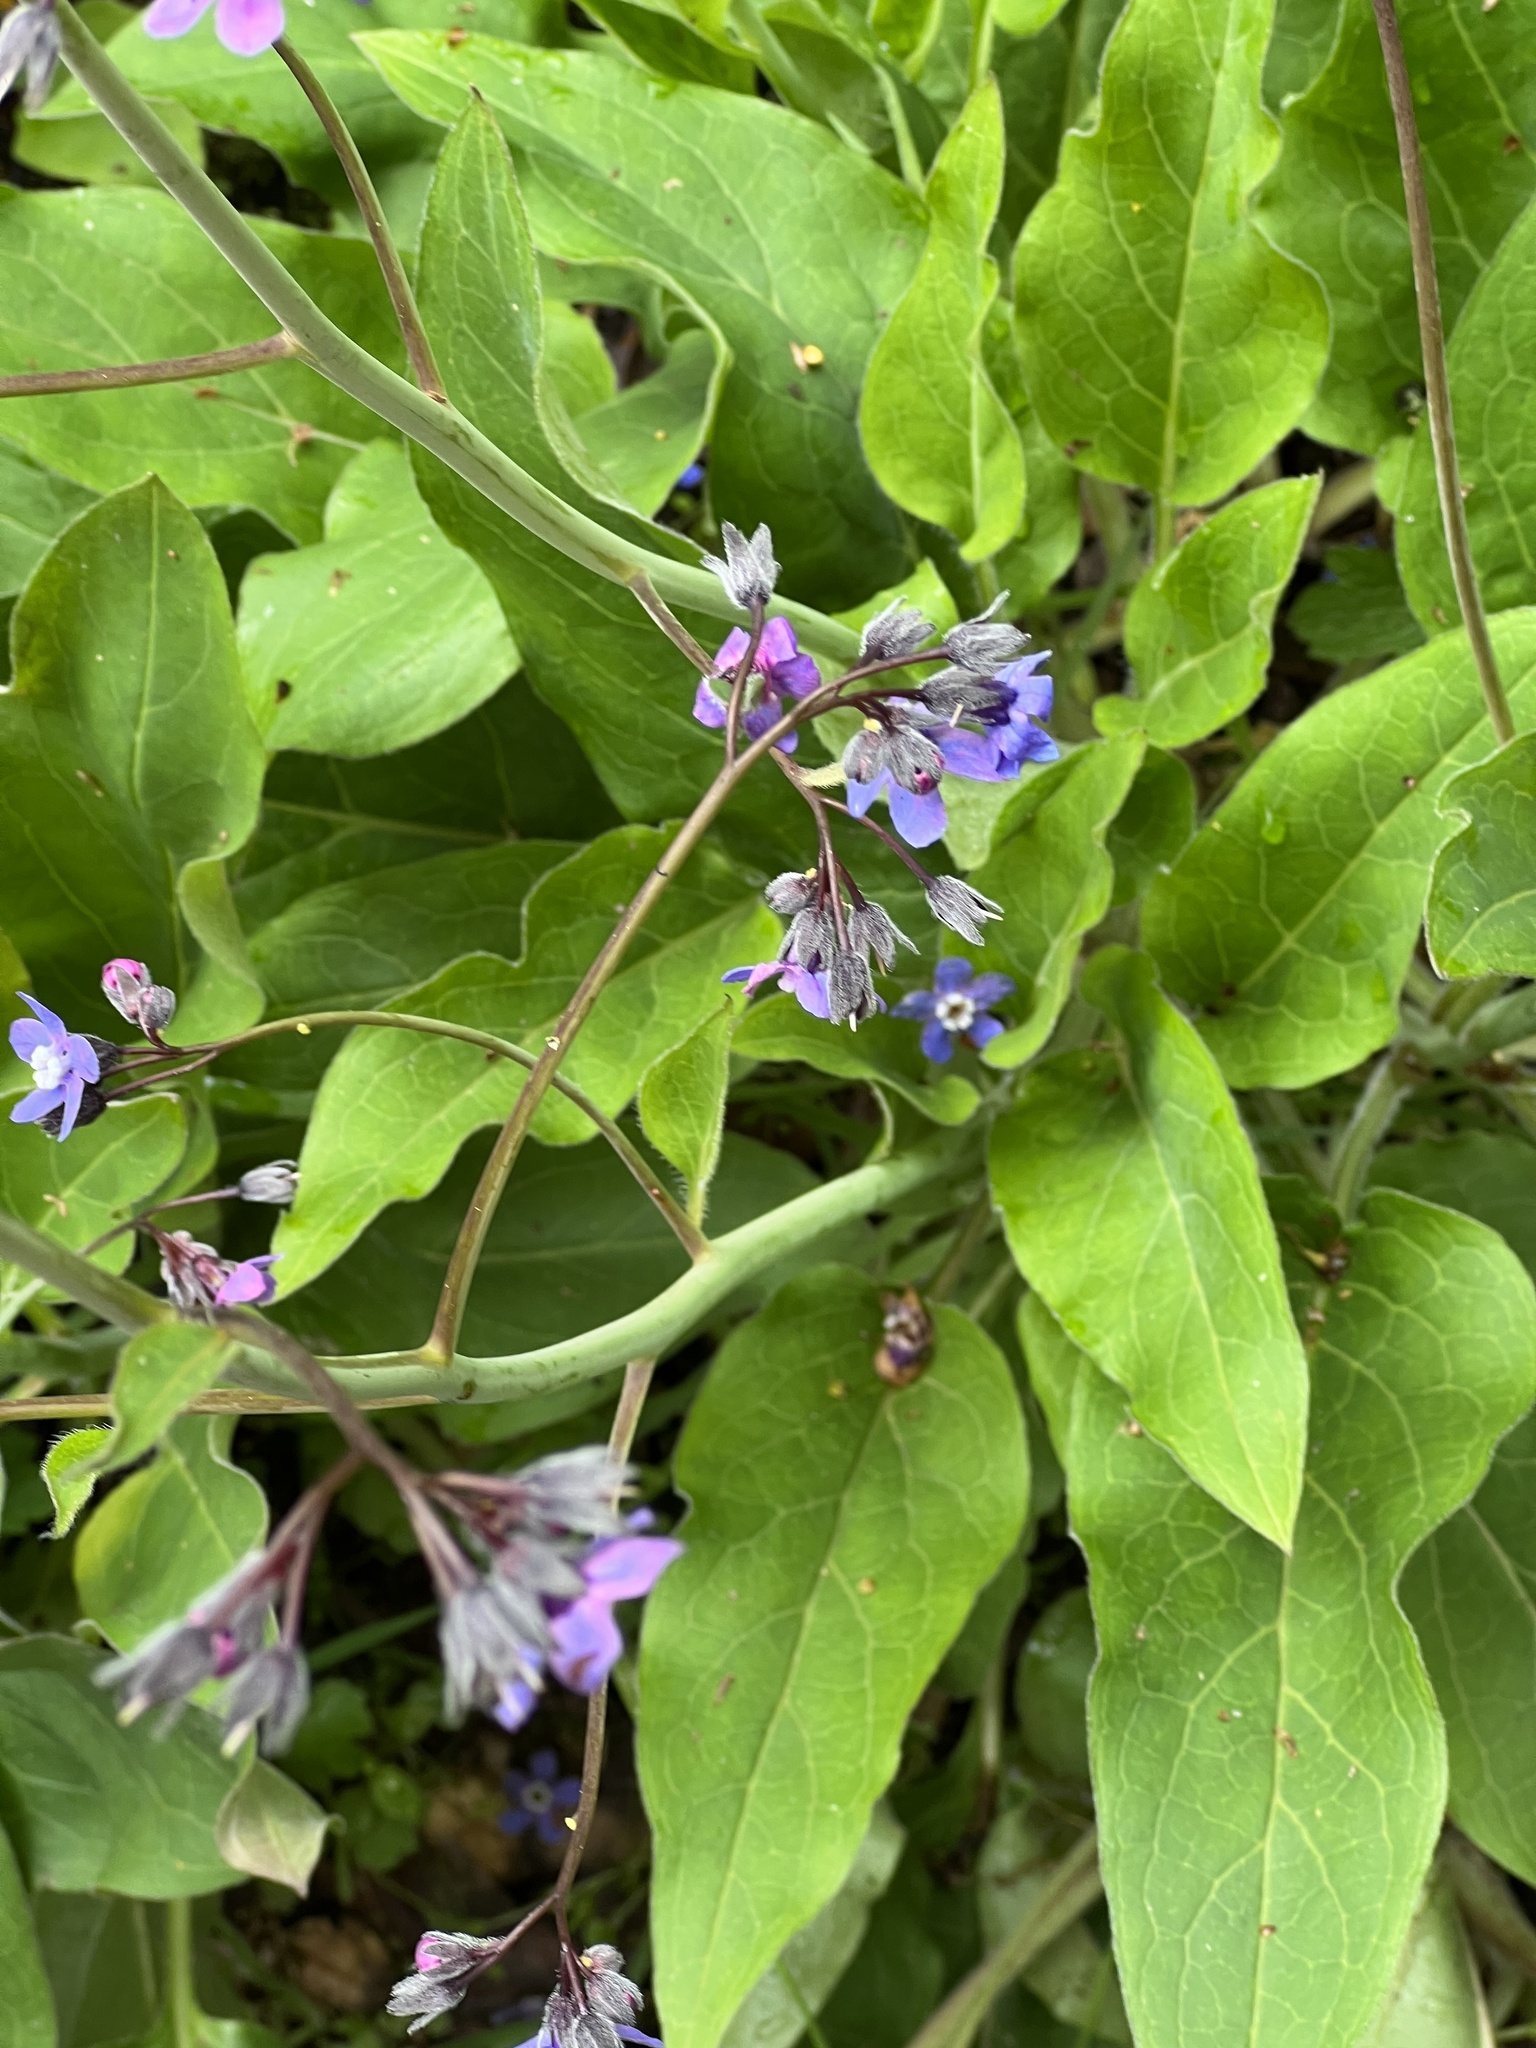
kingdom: Plantae
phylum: Tracheophyta
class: Magnoliopsida
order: Boraginales
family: Boraginaceae
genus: Adelinia
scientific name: Adelinia grande
